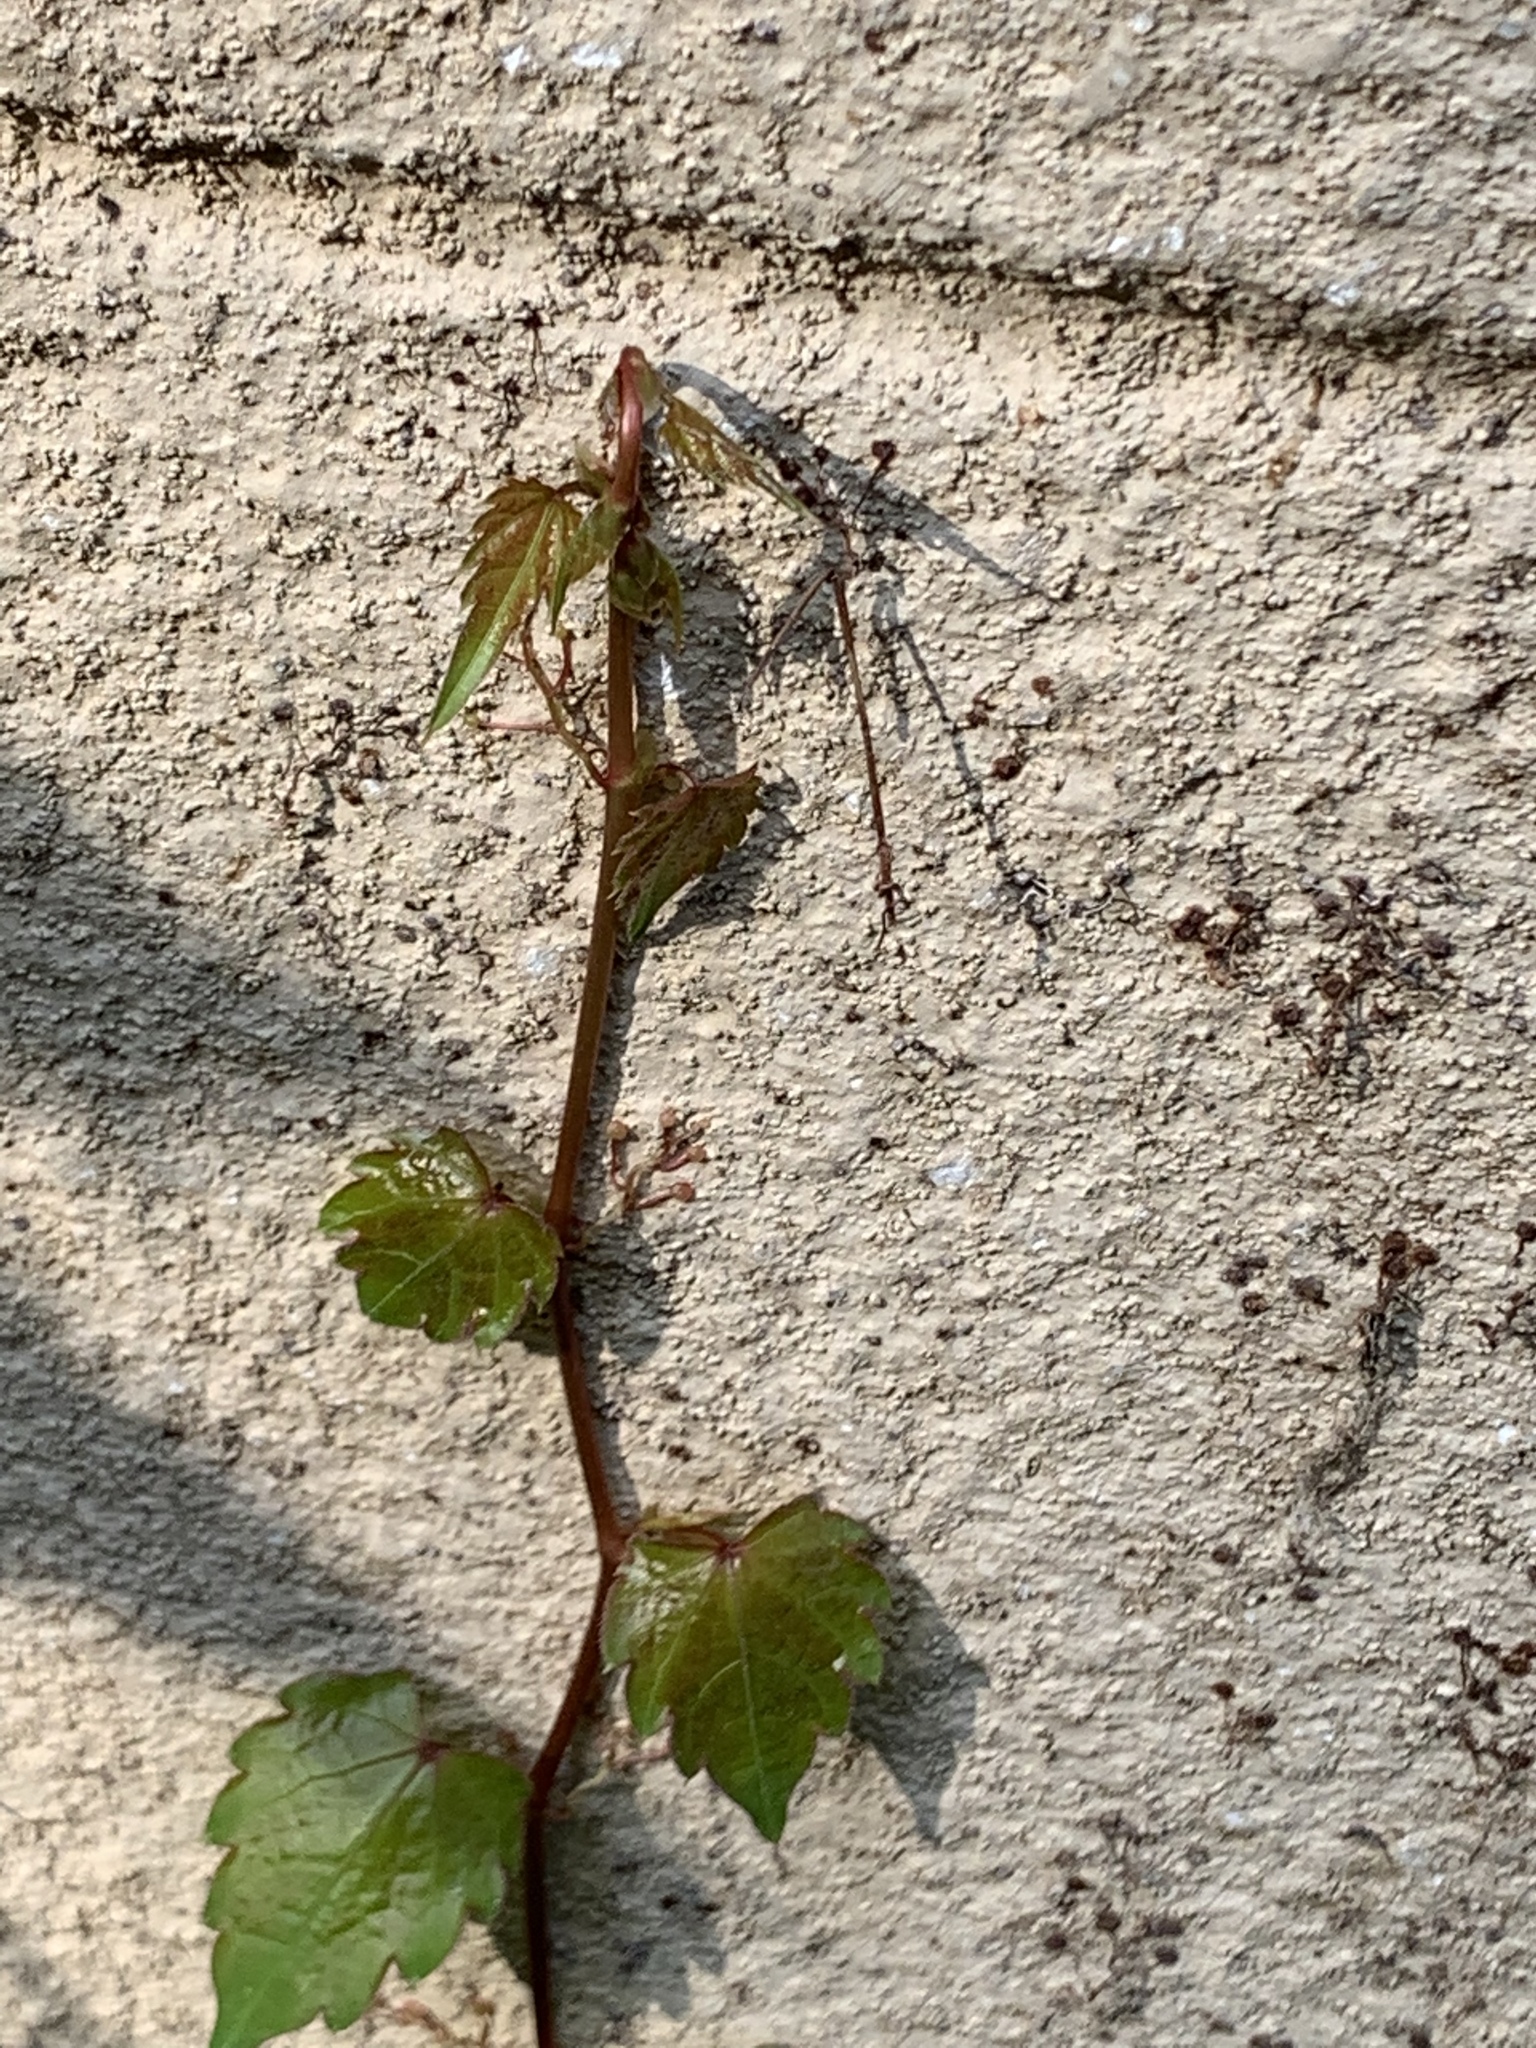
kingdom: Plantae
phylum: Tracheophyta
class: Magnoliopsida
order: Vitales
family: Vitaceae
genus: Parthenocissus
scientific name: Parthenocissus tricuspidata
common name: Boston ivy
